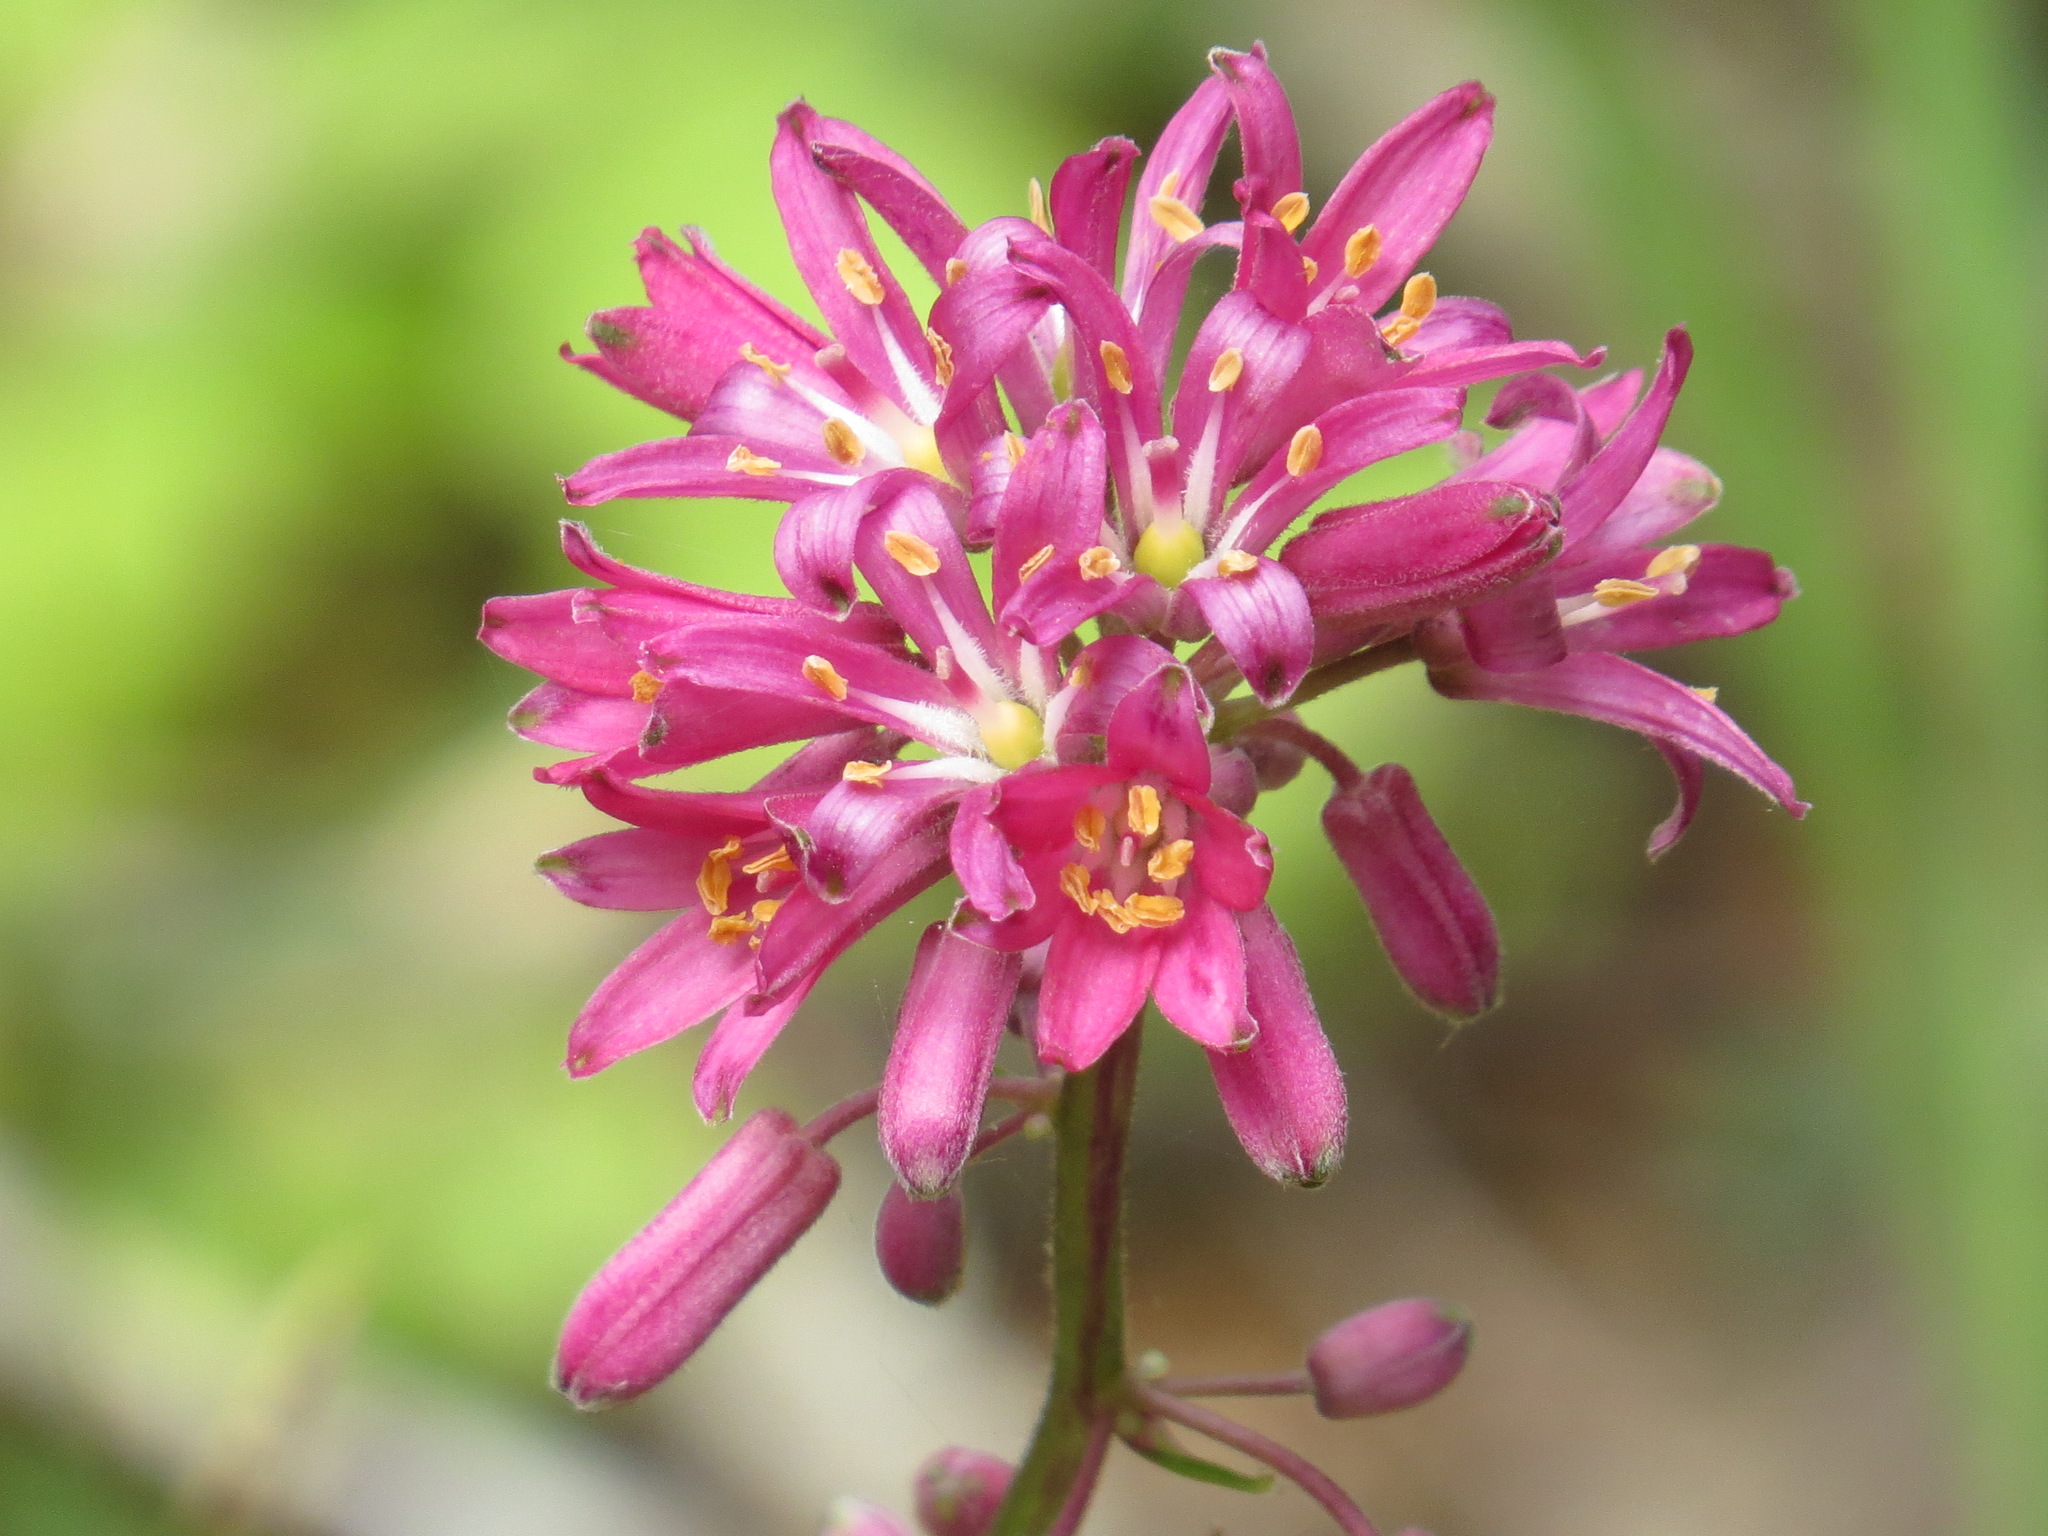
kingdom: Plantae
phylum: Tracheophyta
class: Liliopsida
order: Liliales
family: Liliaceae
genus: Clintonia
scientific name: Clintonia andrewsiana
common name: Red clintonia
